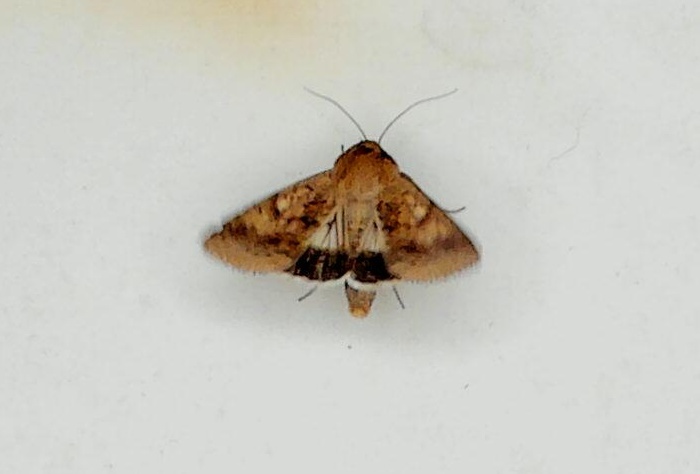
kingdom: Animalia
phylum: Arthropoda
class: Insecta
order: Lepidoptera
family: Noctuidae
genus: Helicoverpa
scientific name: Helicoverpa punctigera
